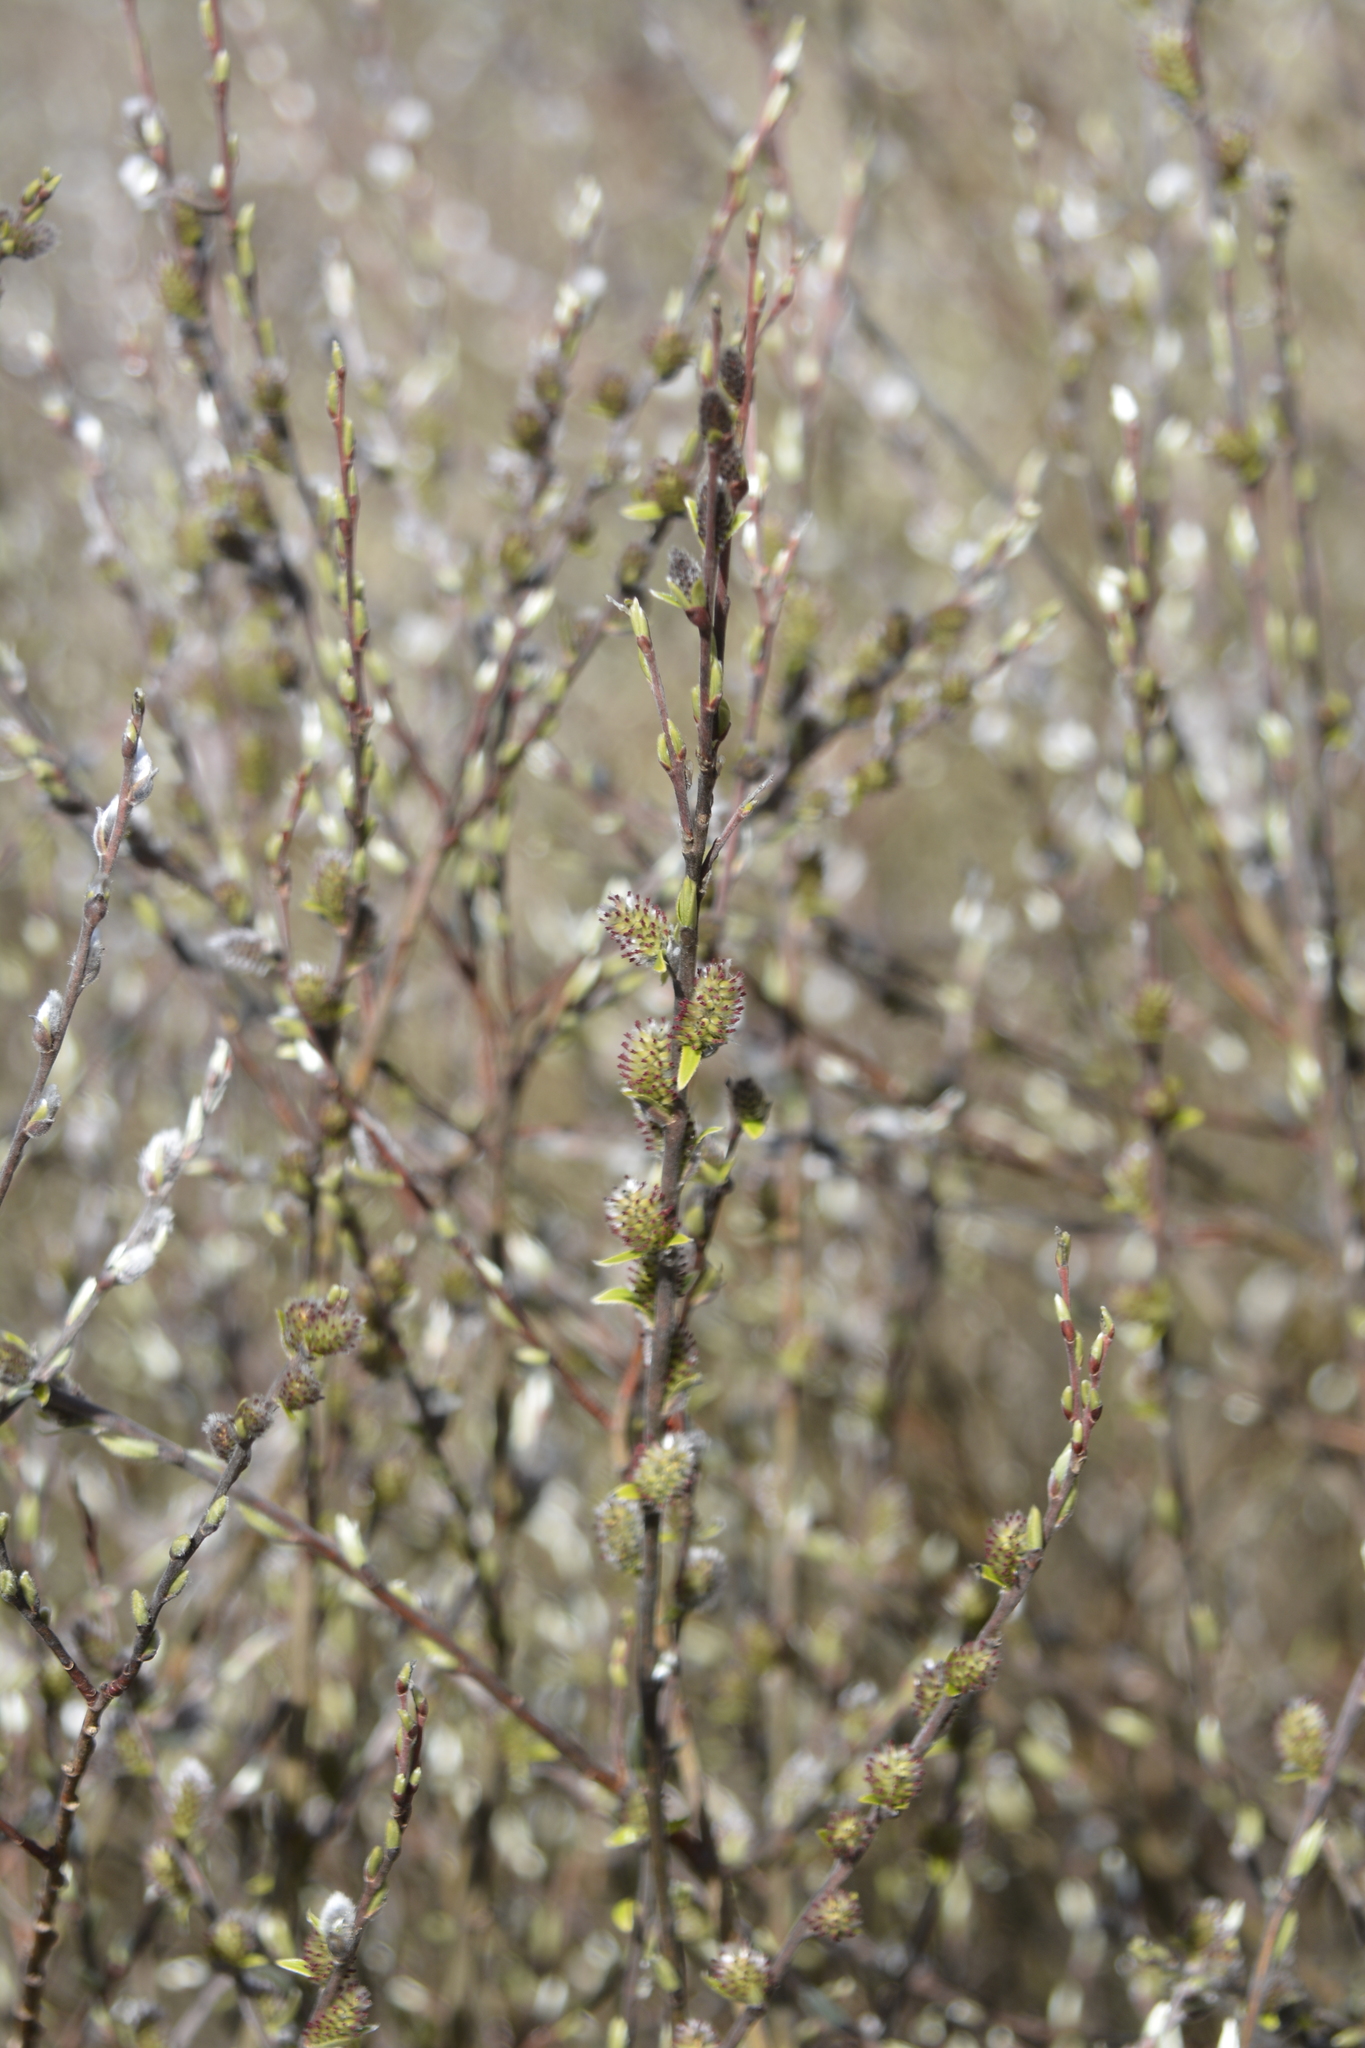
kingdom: Plantae
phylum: Tracheophyta
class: Magnoliopsida
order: Malpighiales
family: Salicaceae
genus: Salix
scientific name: Salix rosmarinifolia
